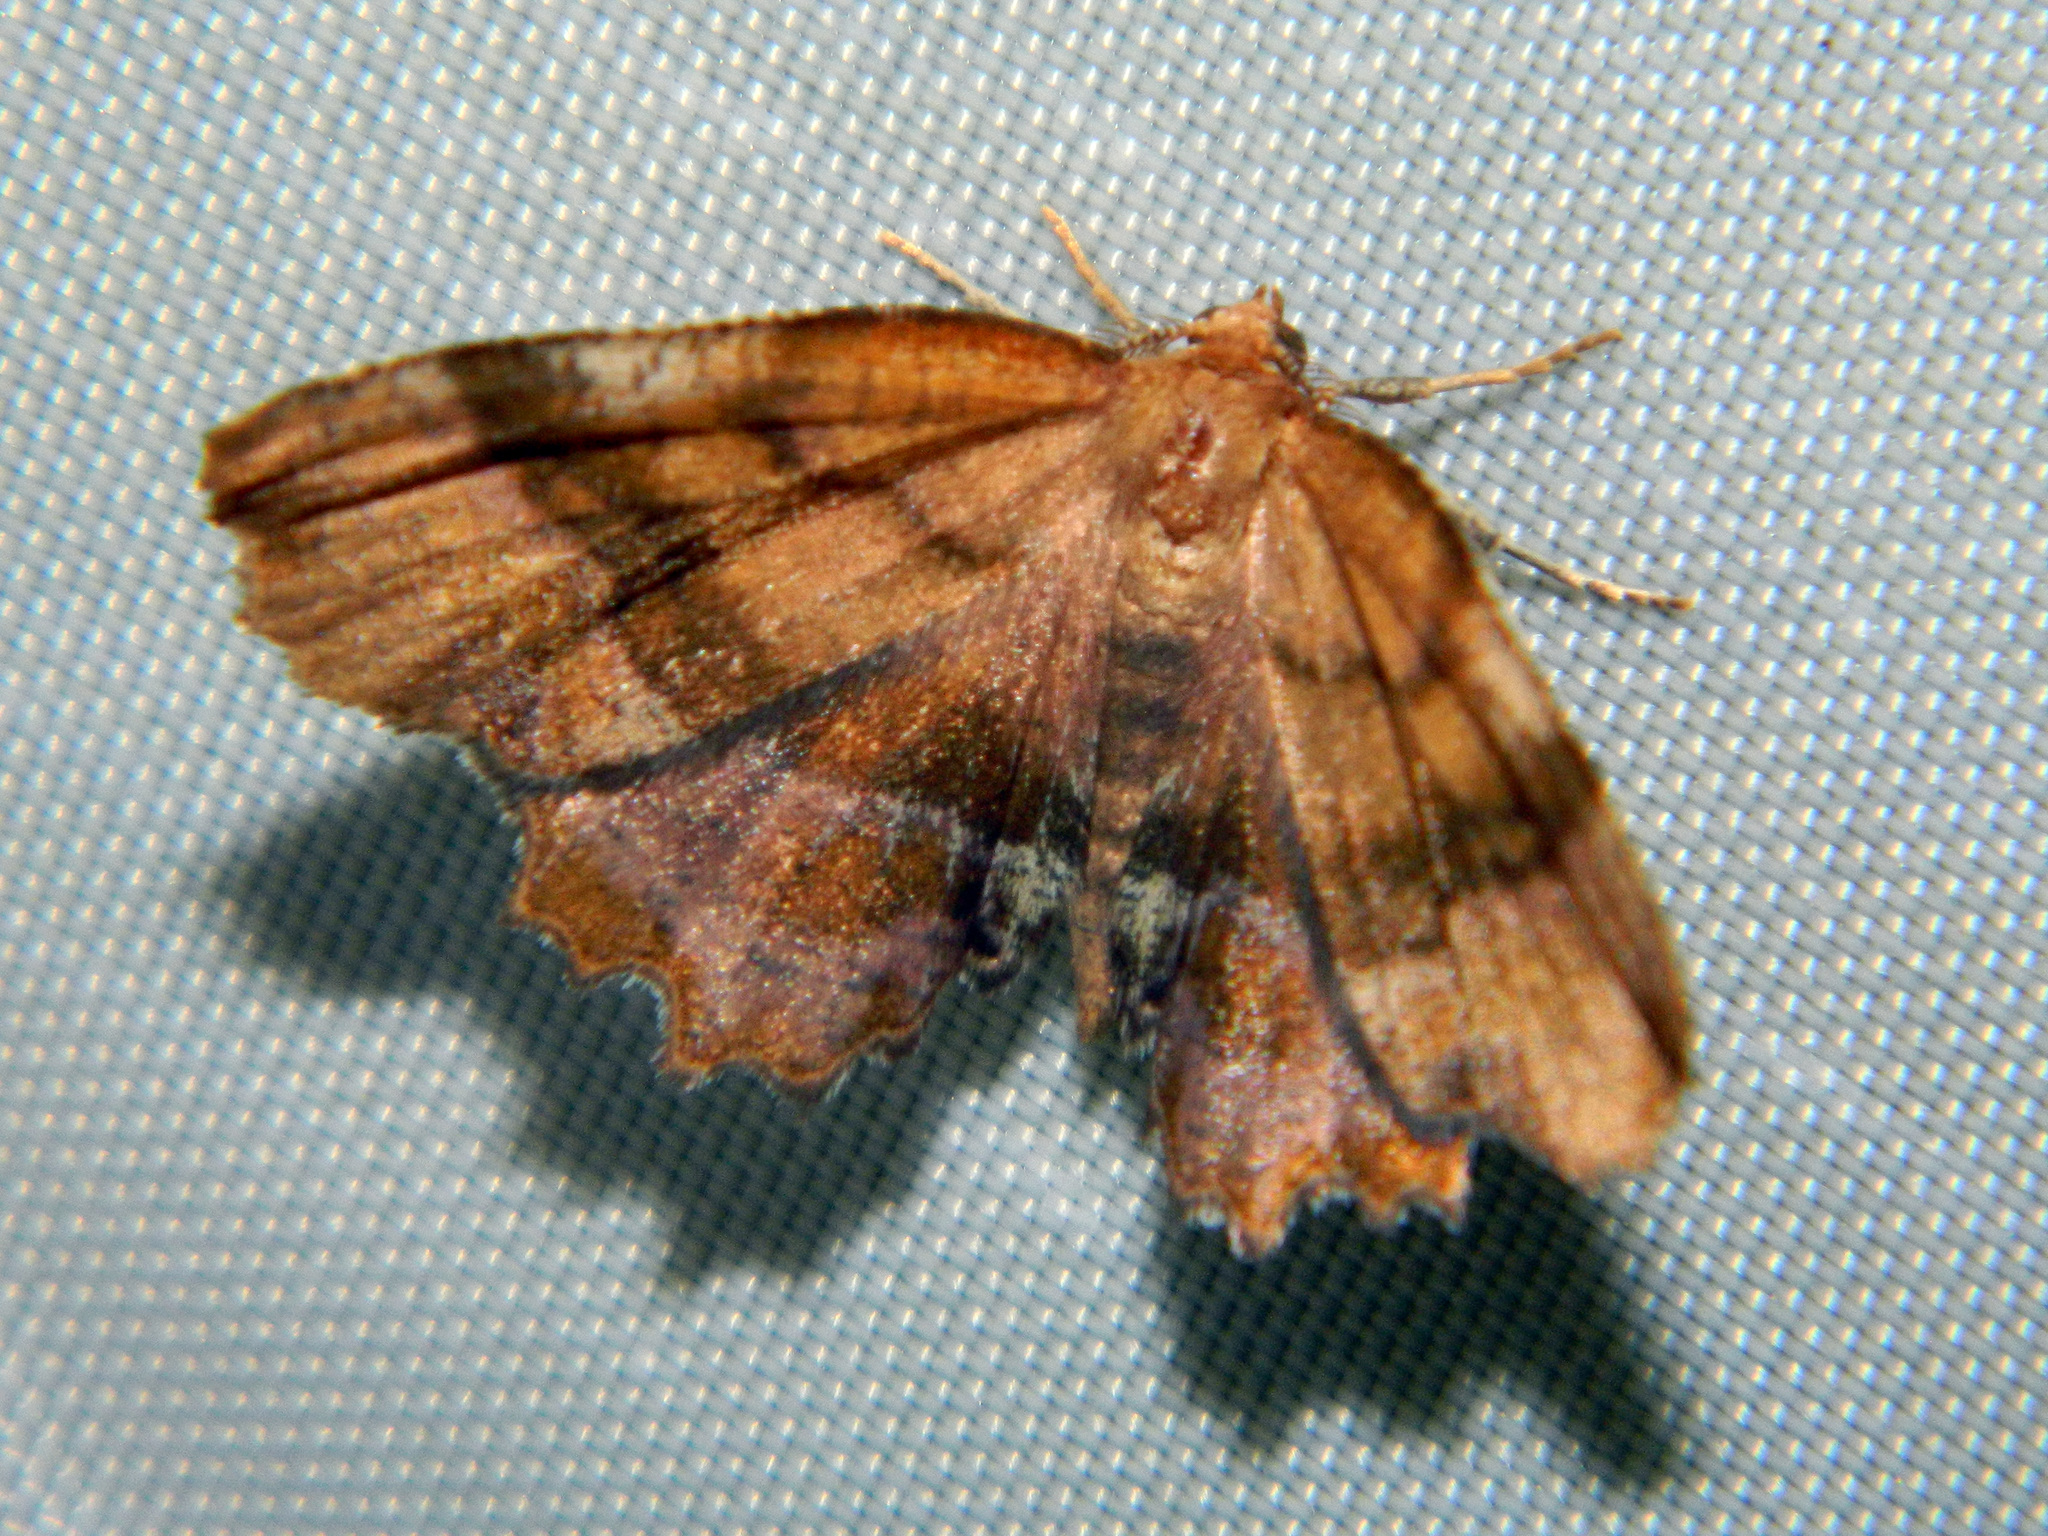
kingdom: Animalia
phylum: Arthropoda
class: Insecta
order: Lepidoptera
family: Geometridae
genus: Cepphis
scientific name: Cepphis armataria
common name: Scallop moth
